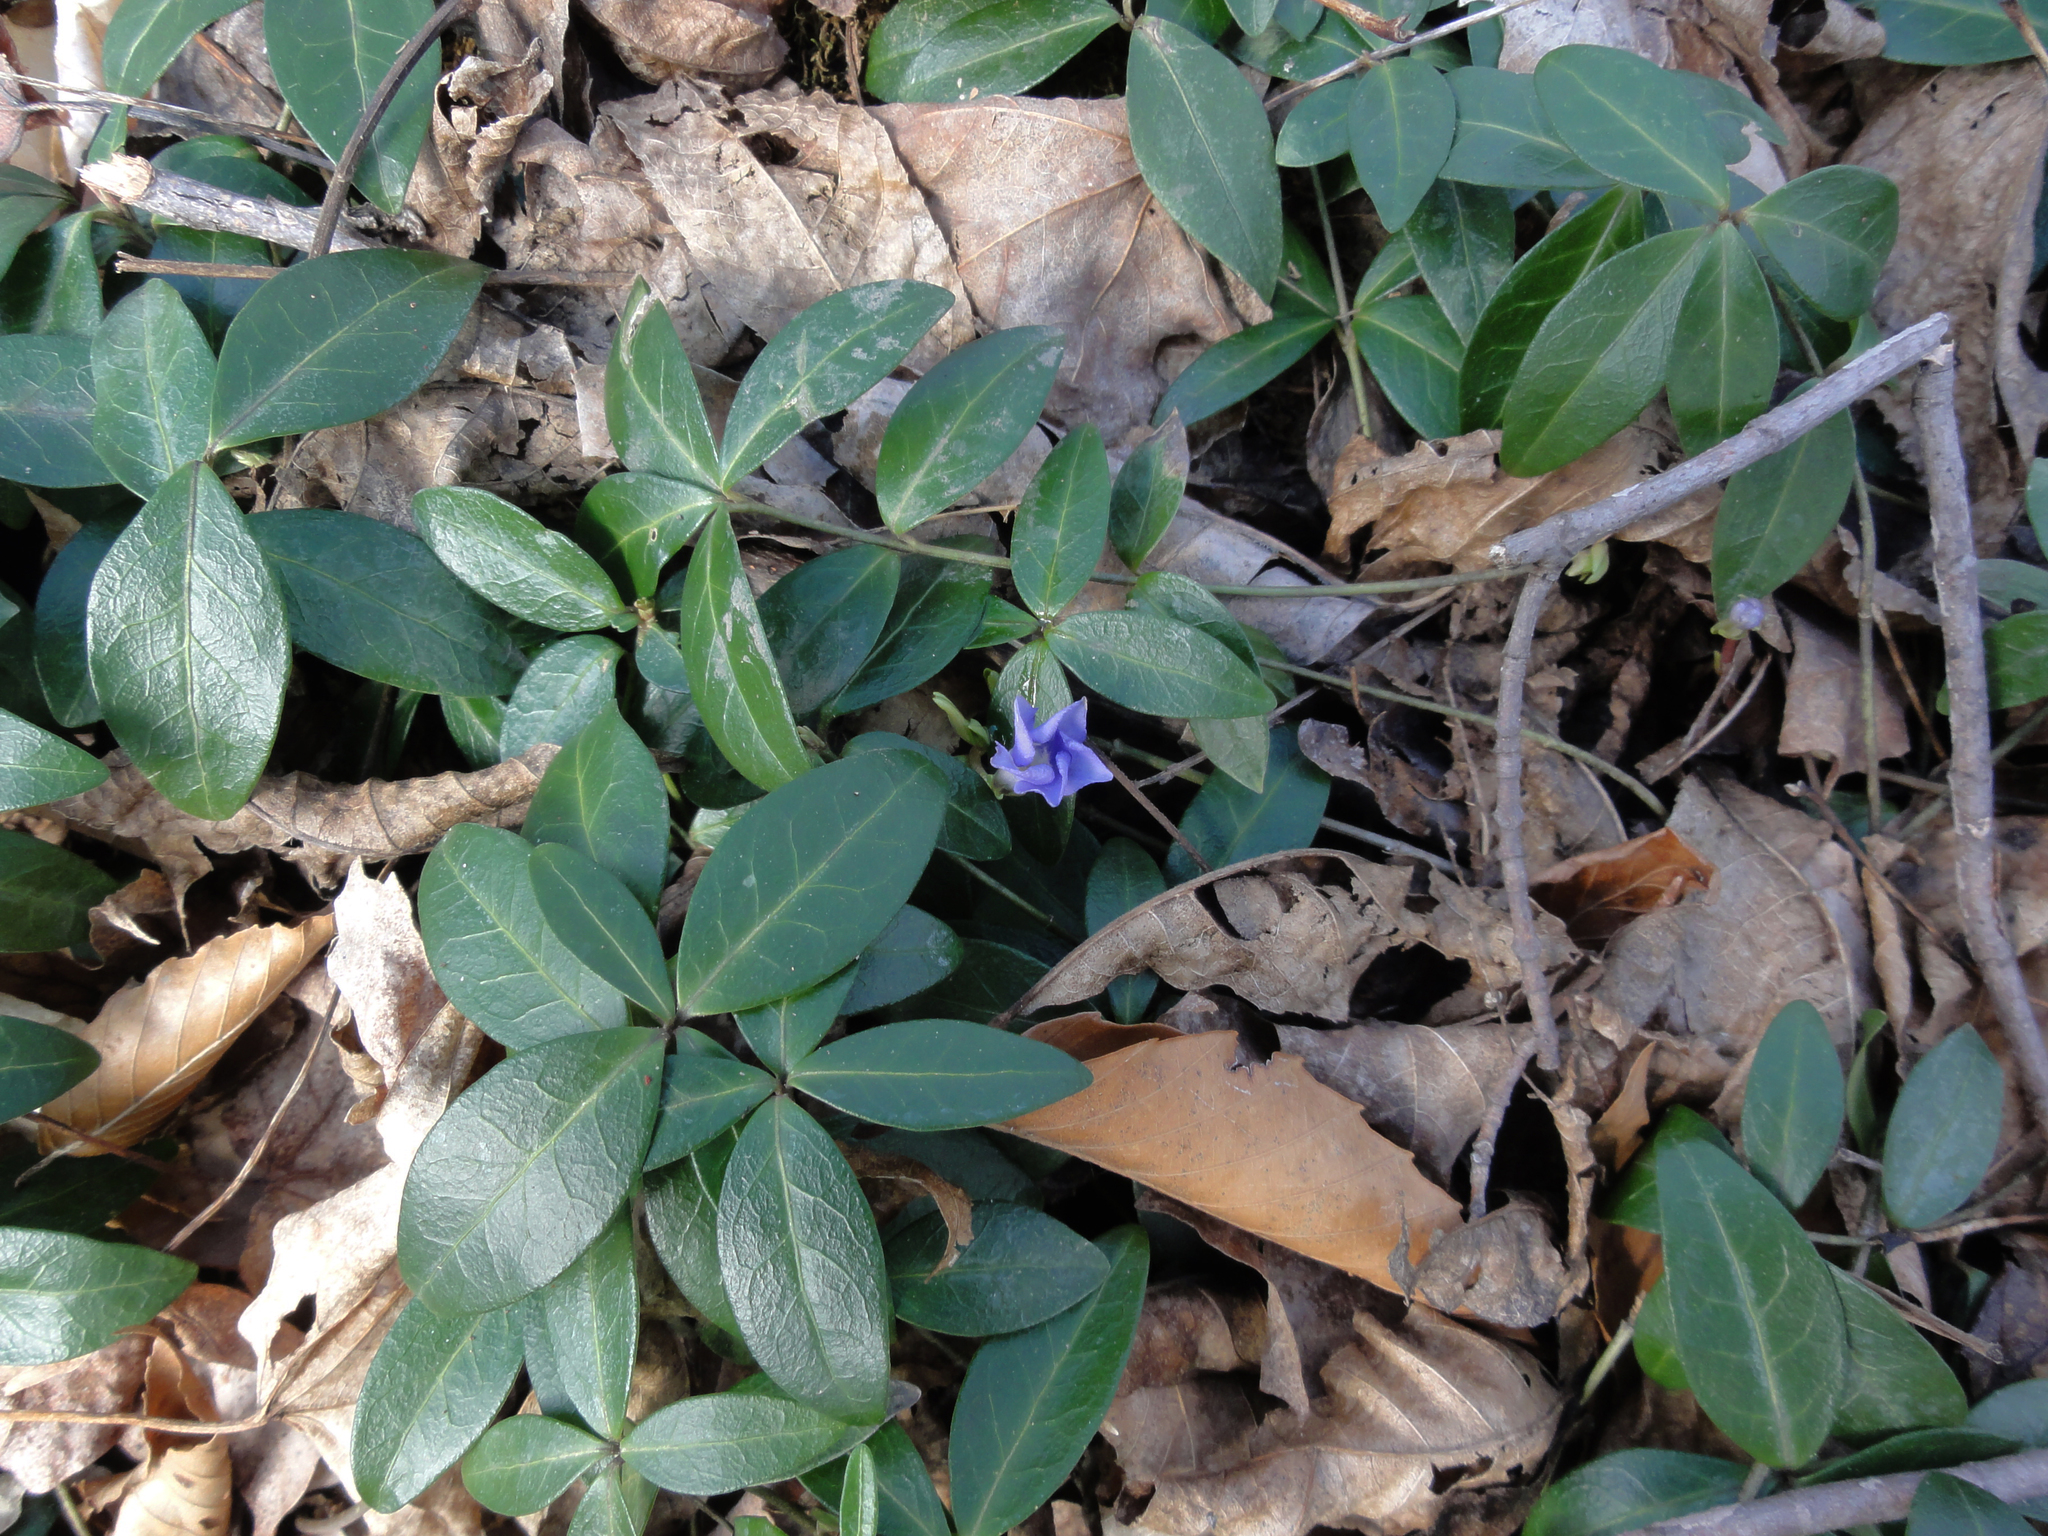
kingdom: Plantae
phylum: Tracheophyta
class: Magnoliopsida
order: Gentianales
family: Apocynaceae
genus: Vinca
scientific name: Vinca minor
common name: Lesser periwinkle
